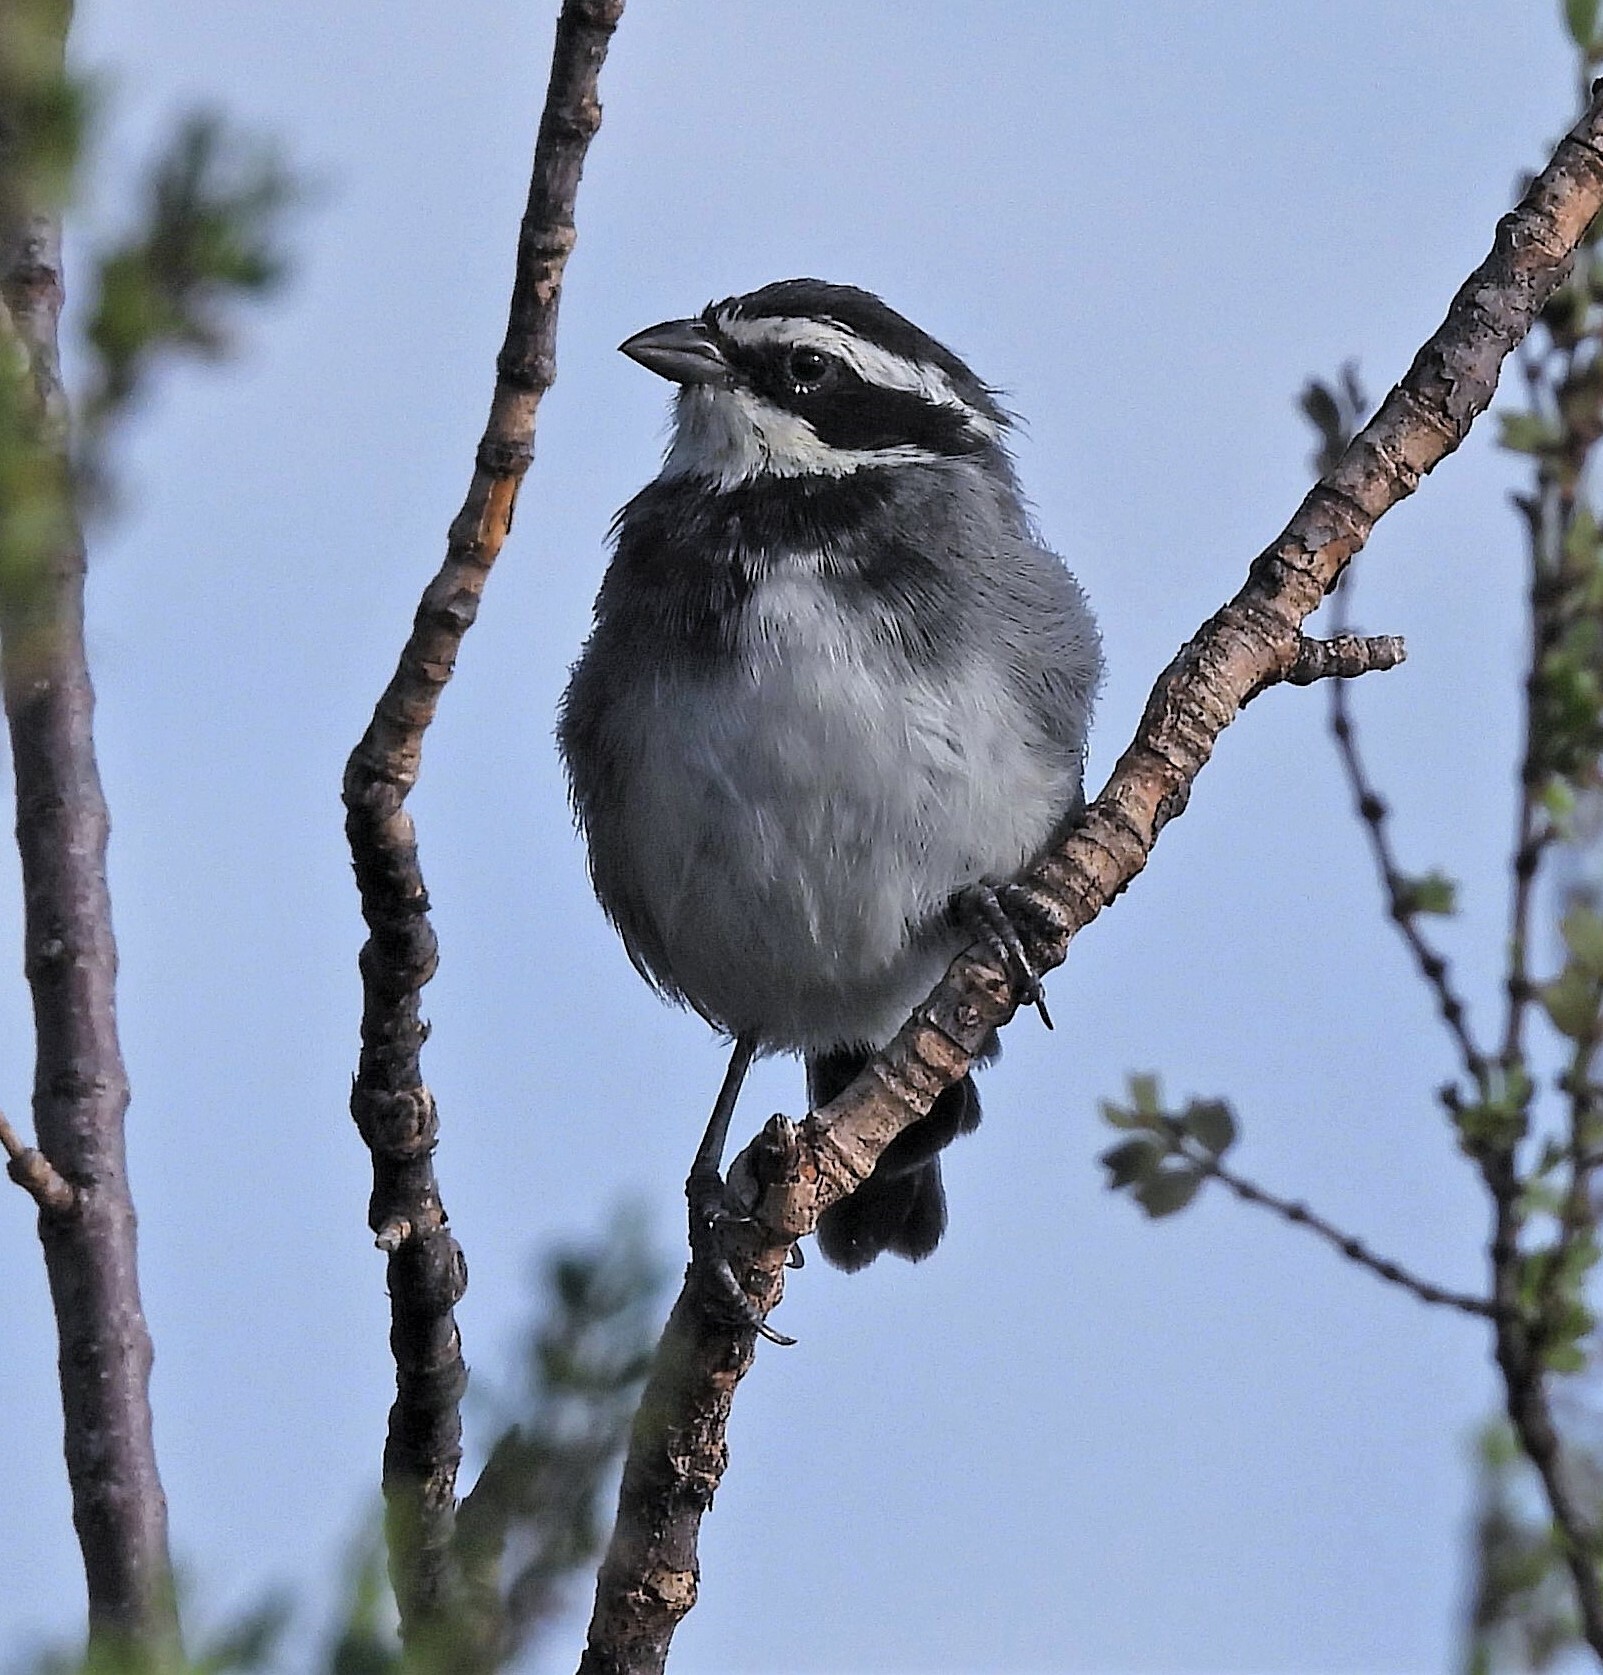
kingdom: Animalia
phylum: Chordata
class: Aves
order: Passeriformes
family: Thraupidae
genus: Microspingus
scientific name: Microspingus torquatus
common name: Ringed warbling-finch
